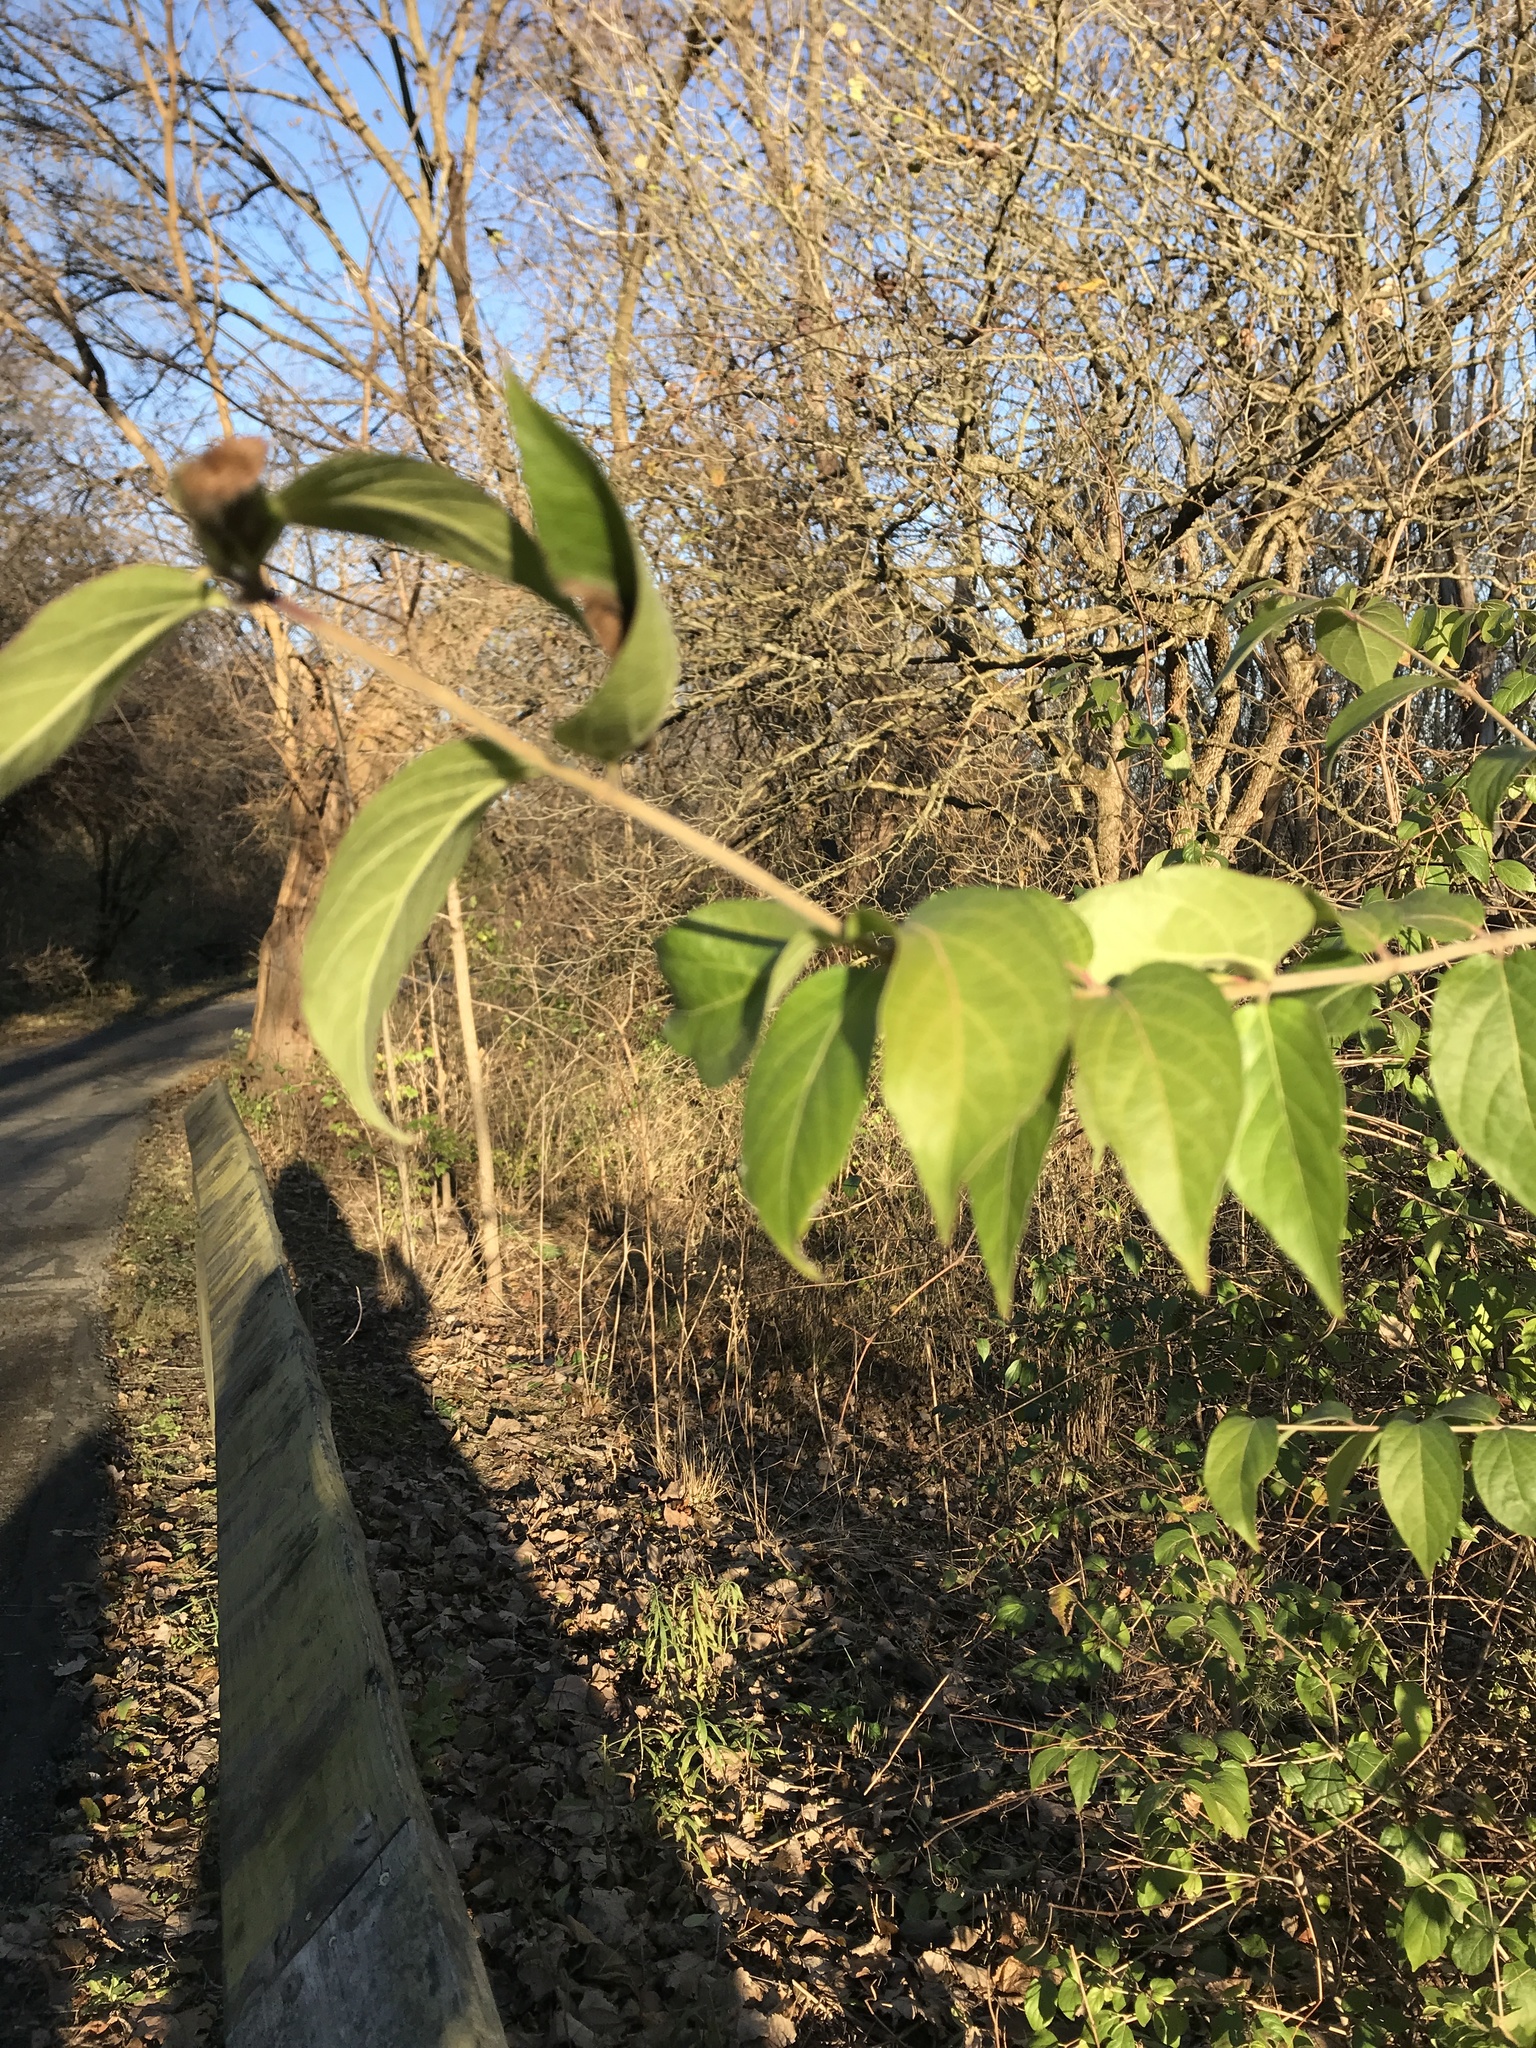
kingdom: Plantae
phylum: Tracheophyta
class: Magnoliopsida
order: Dipsacales
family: Caprifoliaceae
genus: Lonicera
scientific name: Lonicera maackii
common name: Amur honeysuckle
